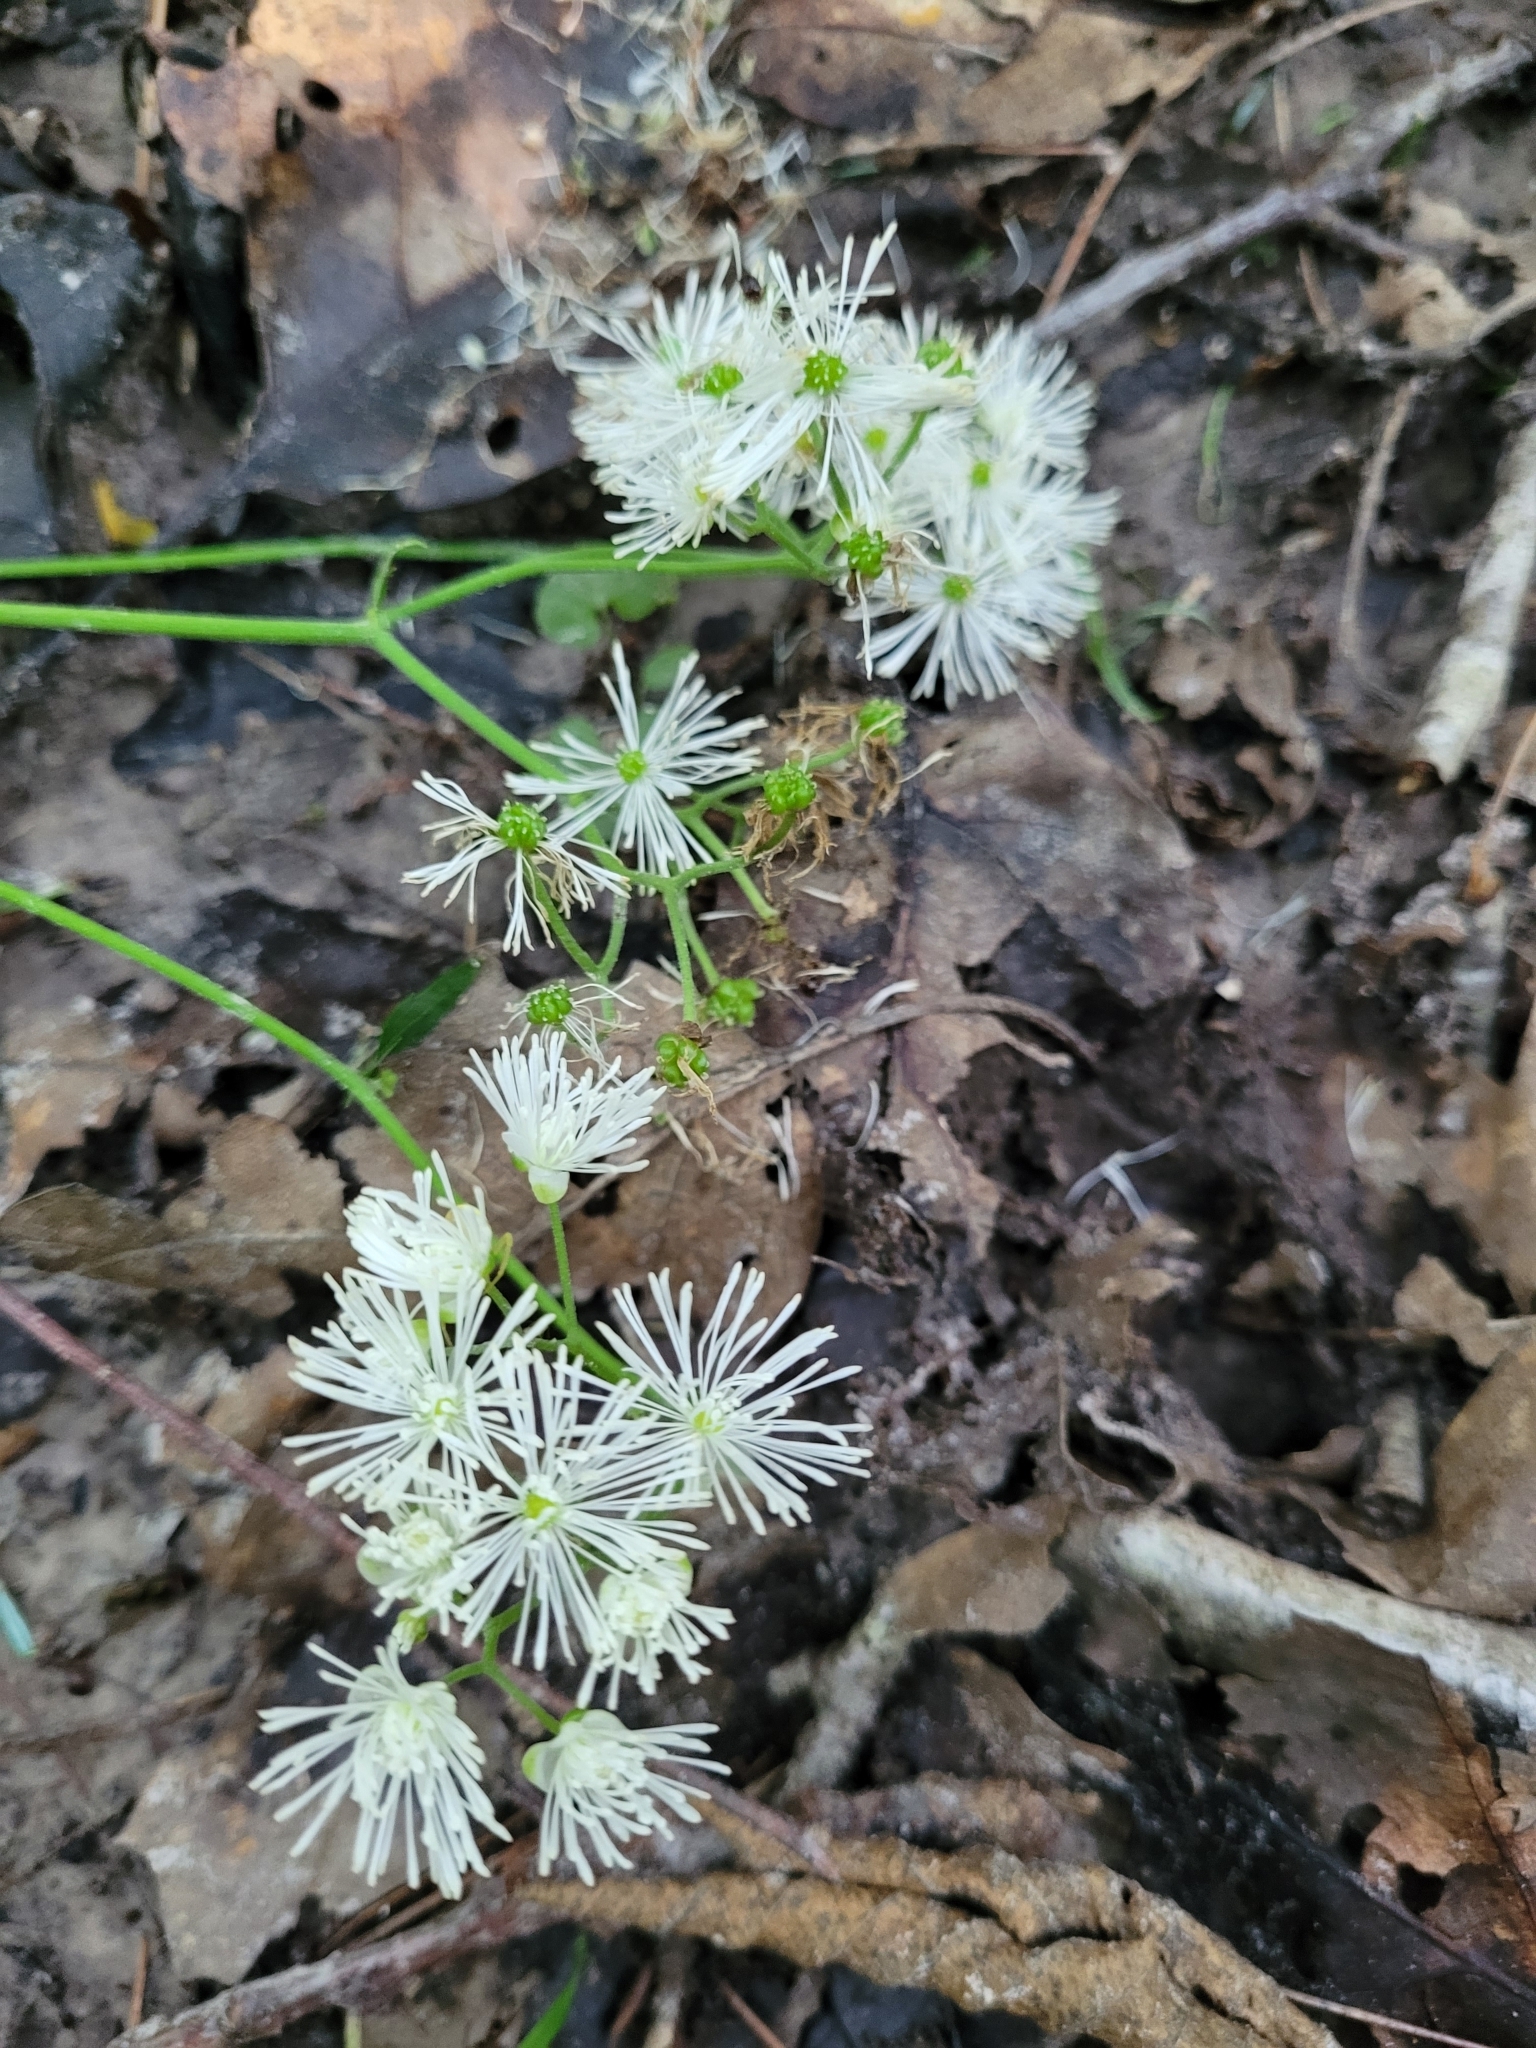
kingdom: Plantae
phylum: Tracheophyta
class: Magnoliopsida
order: Ranunculales
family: Ranunculaceae
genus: Trautvetteria
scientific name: Trautvetteria carolinensis
